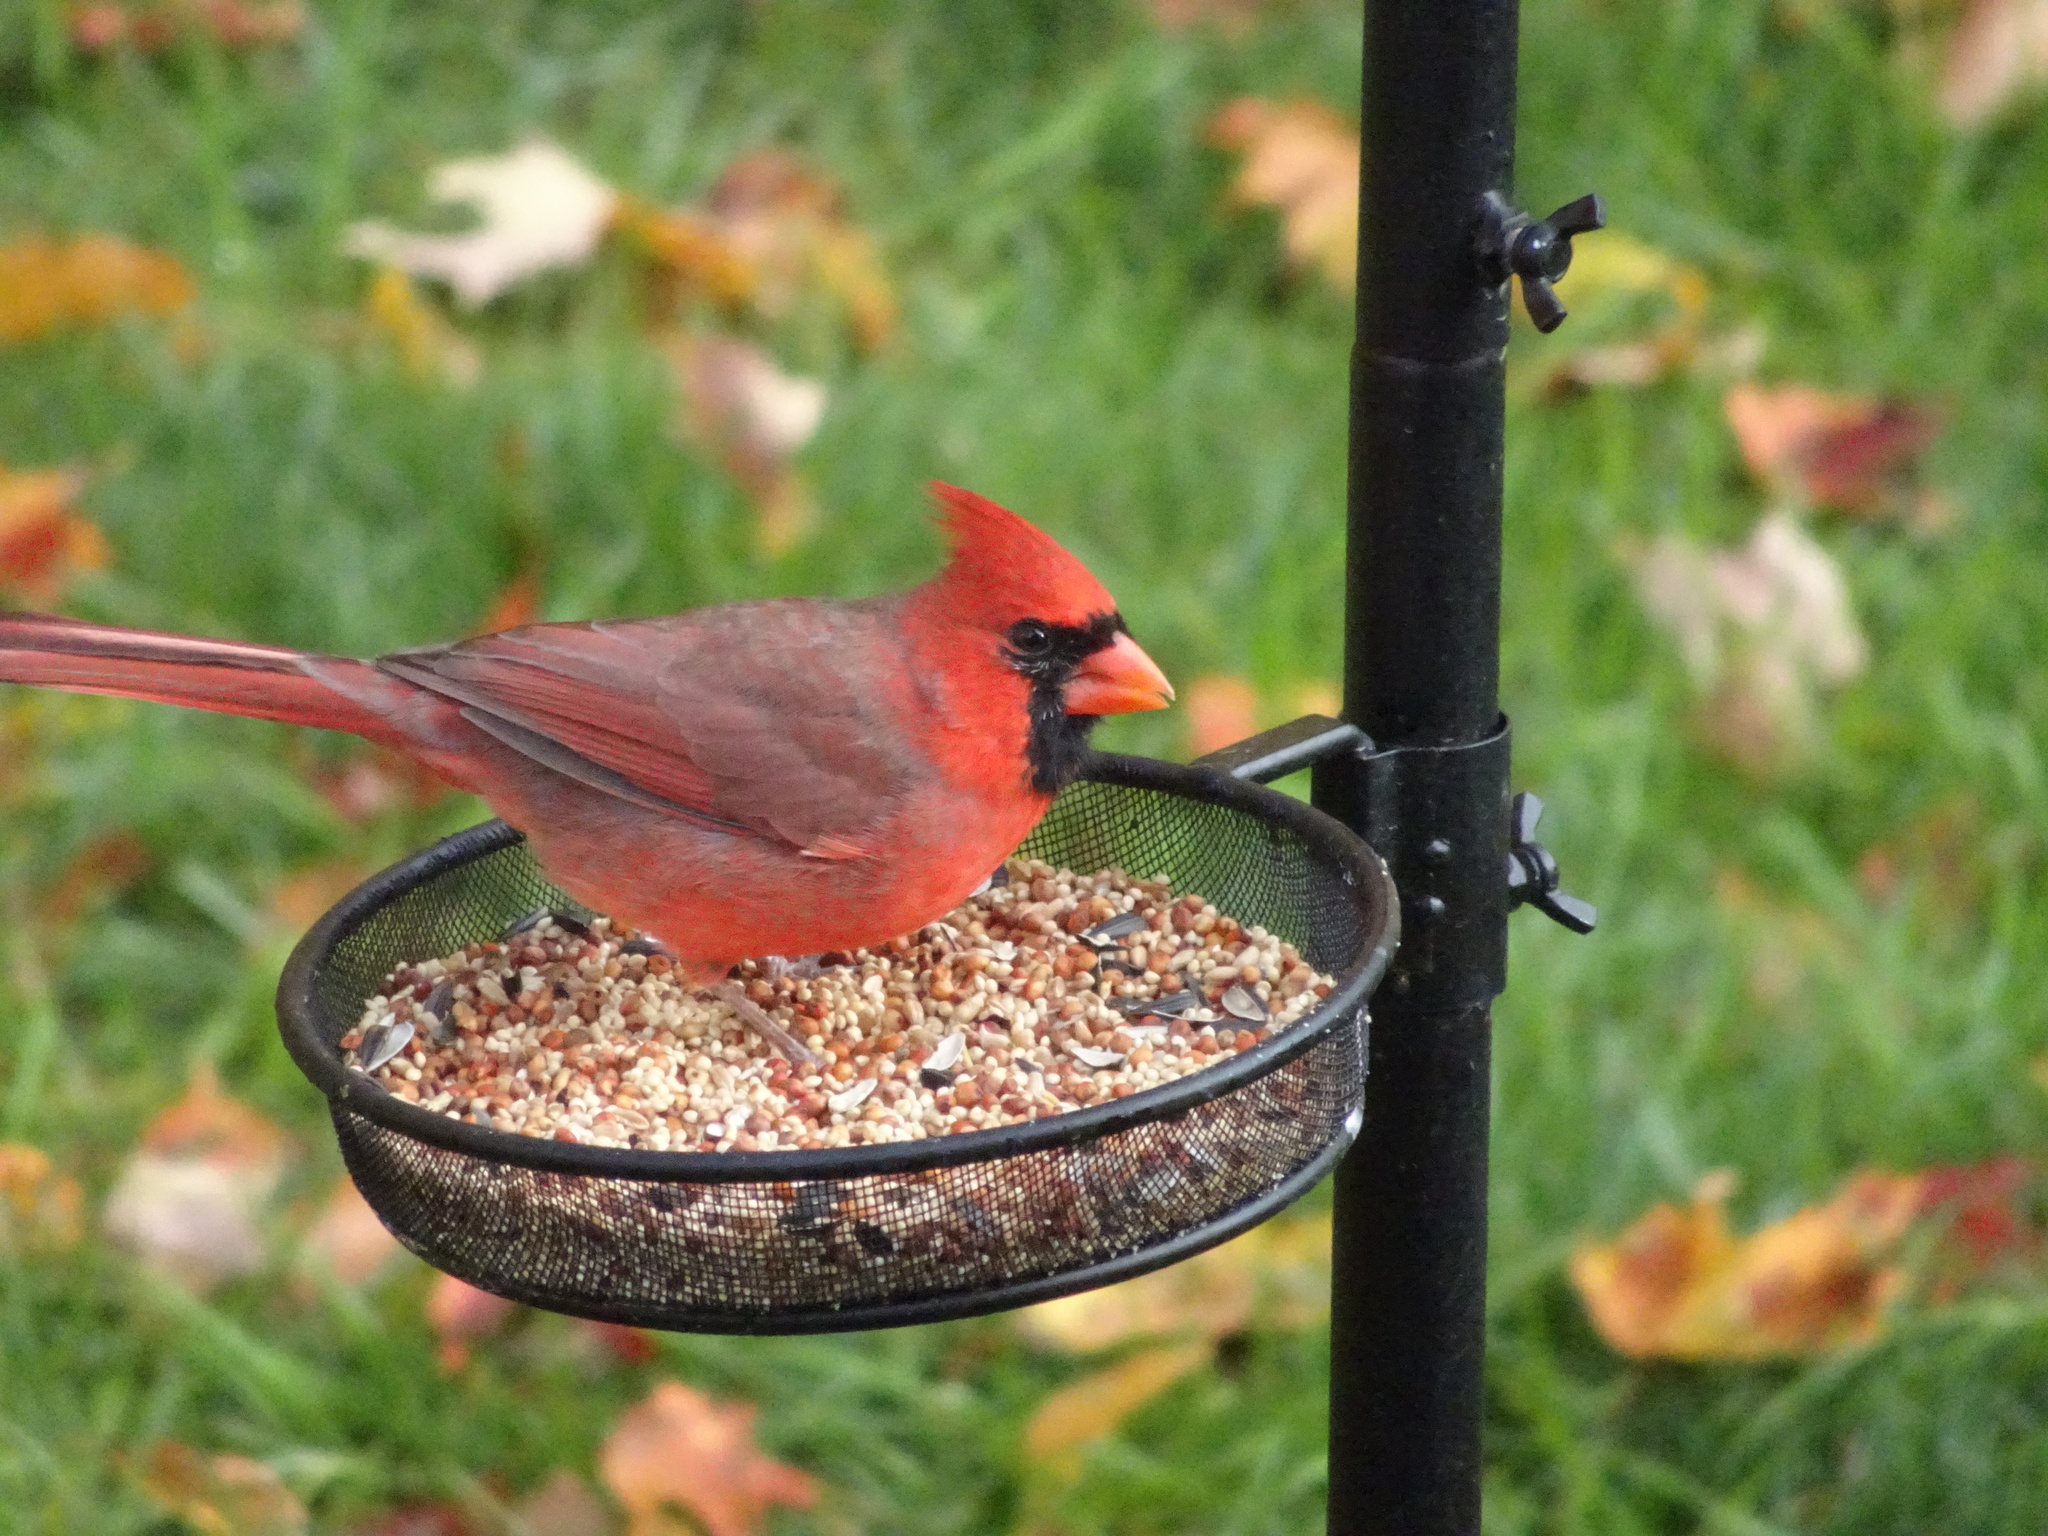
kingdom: Animalia
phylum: Chordata
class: Aves
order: Passeriformes
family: Cardinalidae
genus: Cardinalis
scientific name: Cardinalis cardinalis
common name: Northern cardinal
